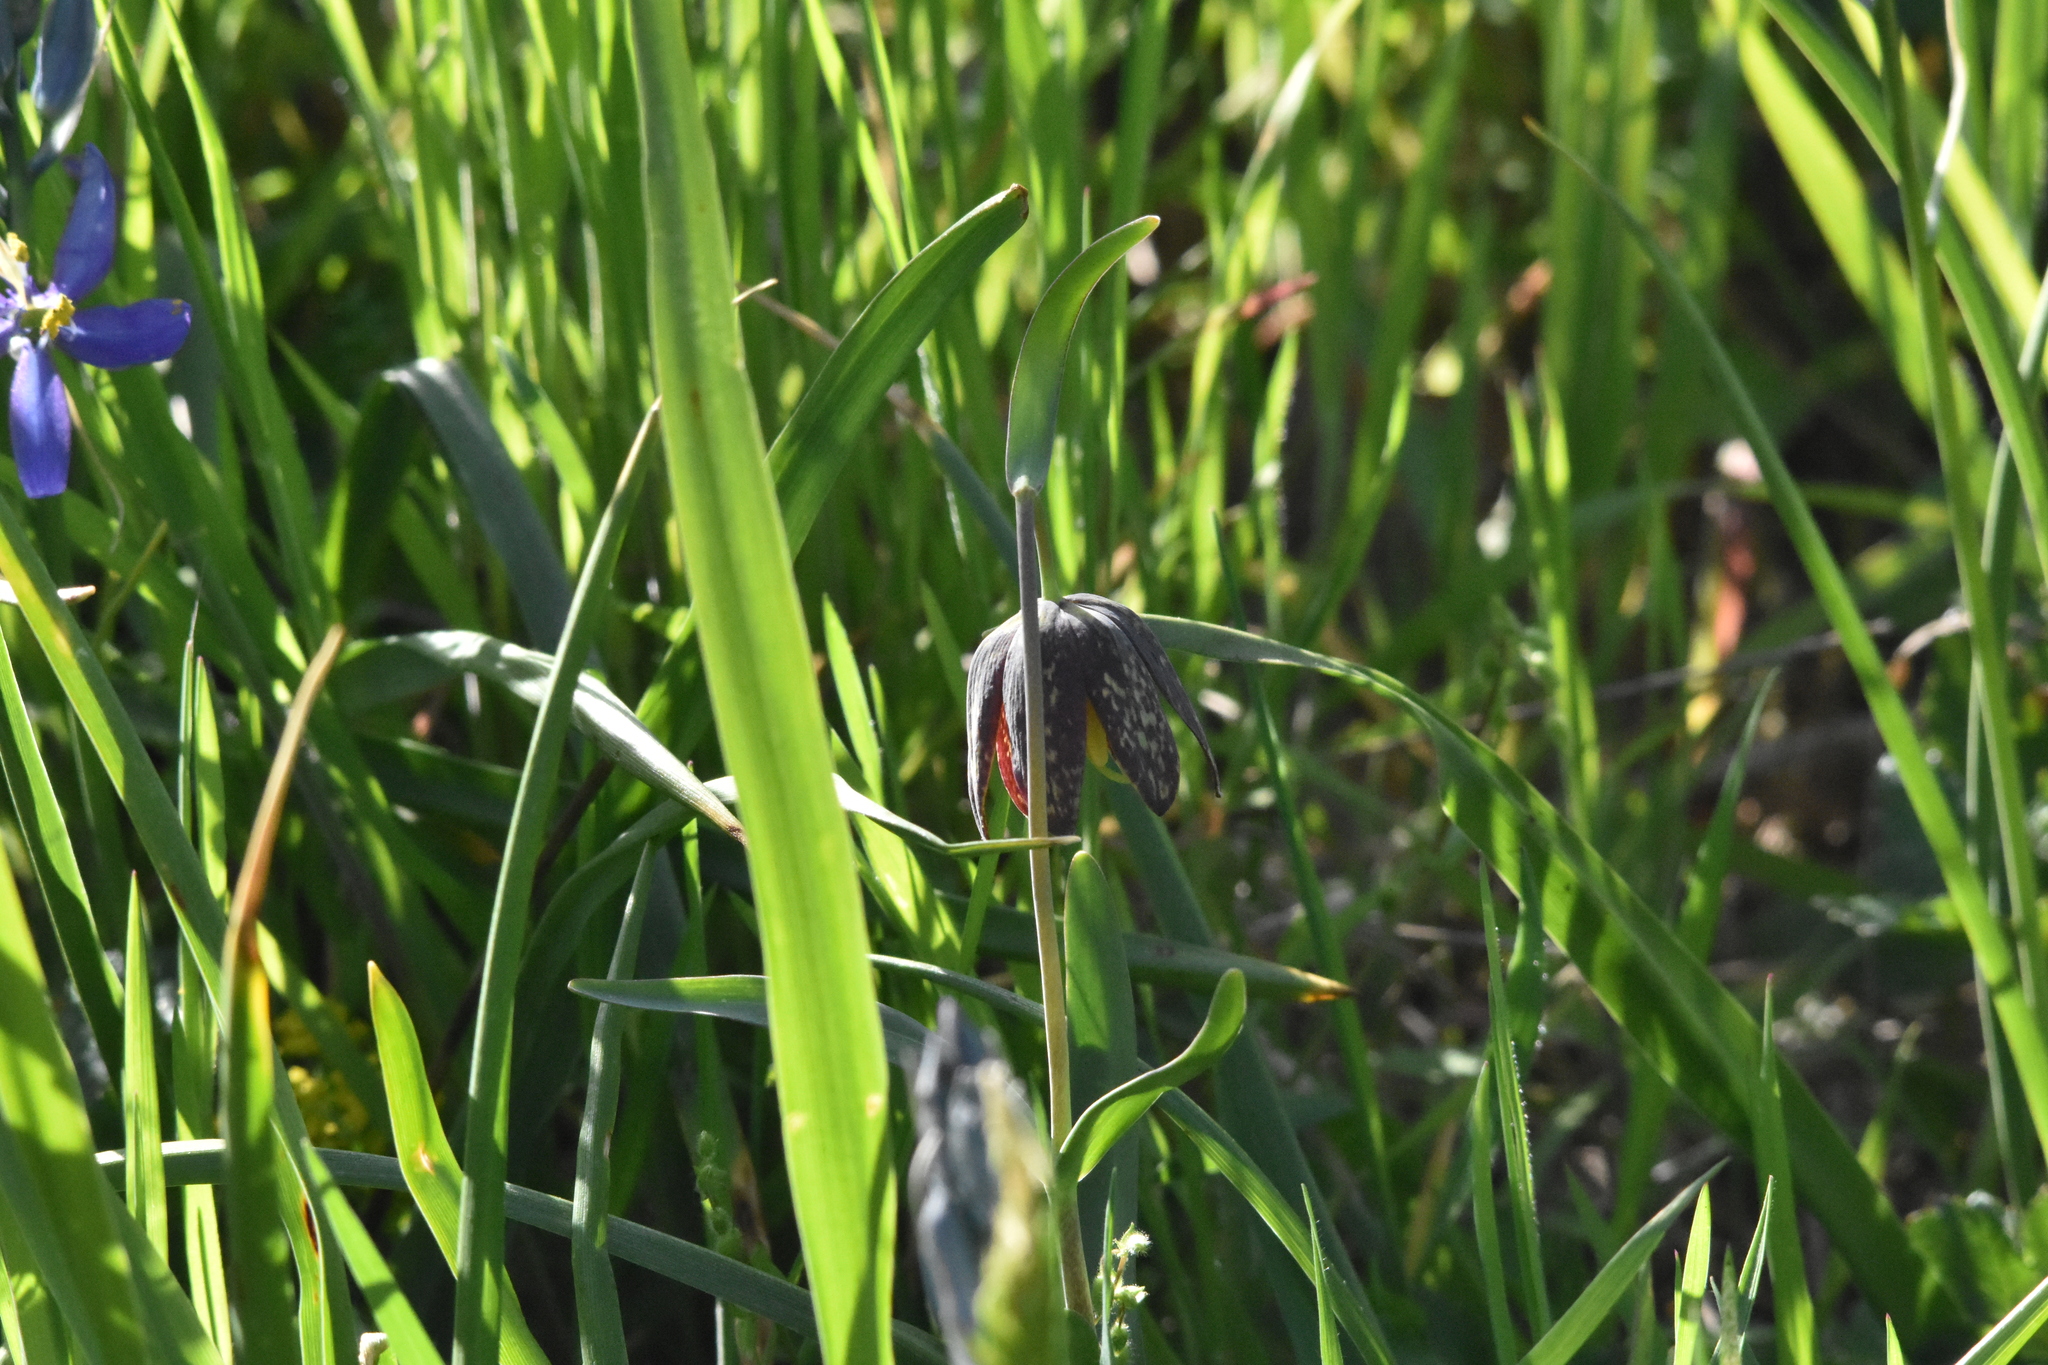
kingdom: Plantae
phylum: Tracheophyta
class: Liliopsida
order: Liliales
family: Liliaceae
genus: Fritillaria
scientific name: Fritillaria affinis
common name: Ojai fritillary
